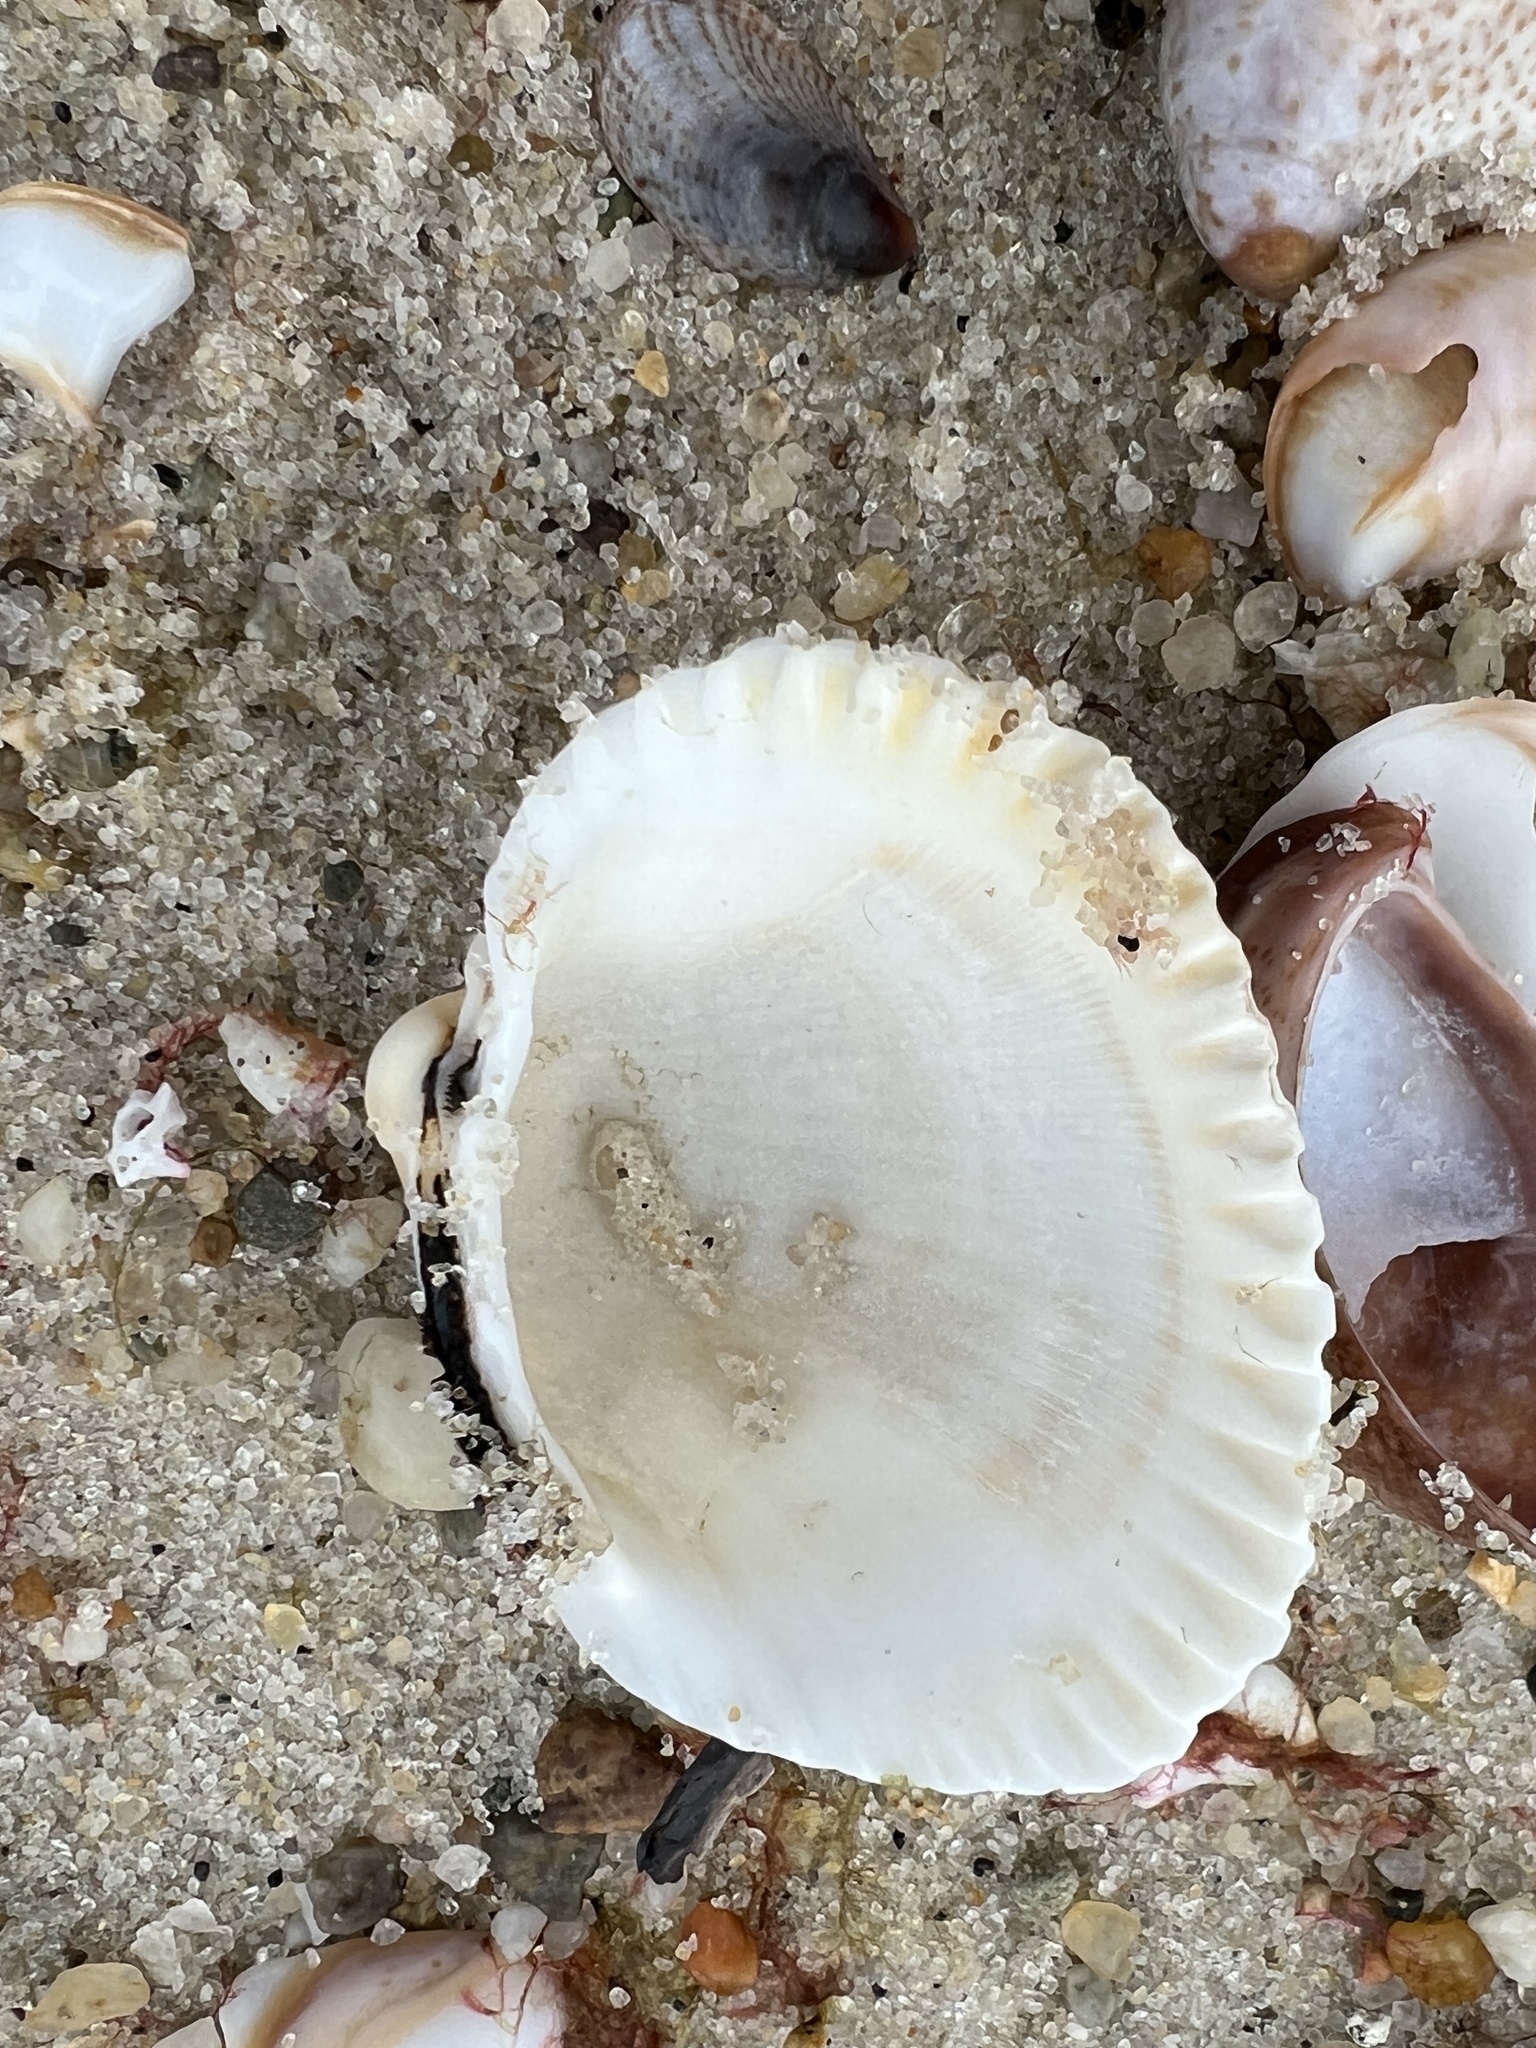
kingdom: Animalia
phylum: Mollusca
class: Bivalvia
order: Arcida
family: Arcidae
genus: Lunarca
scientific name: Lunarca ovalis
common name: Blood ark
